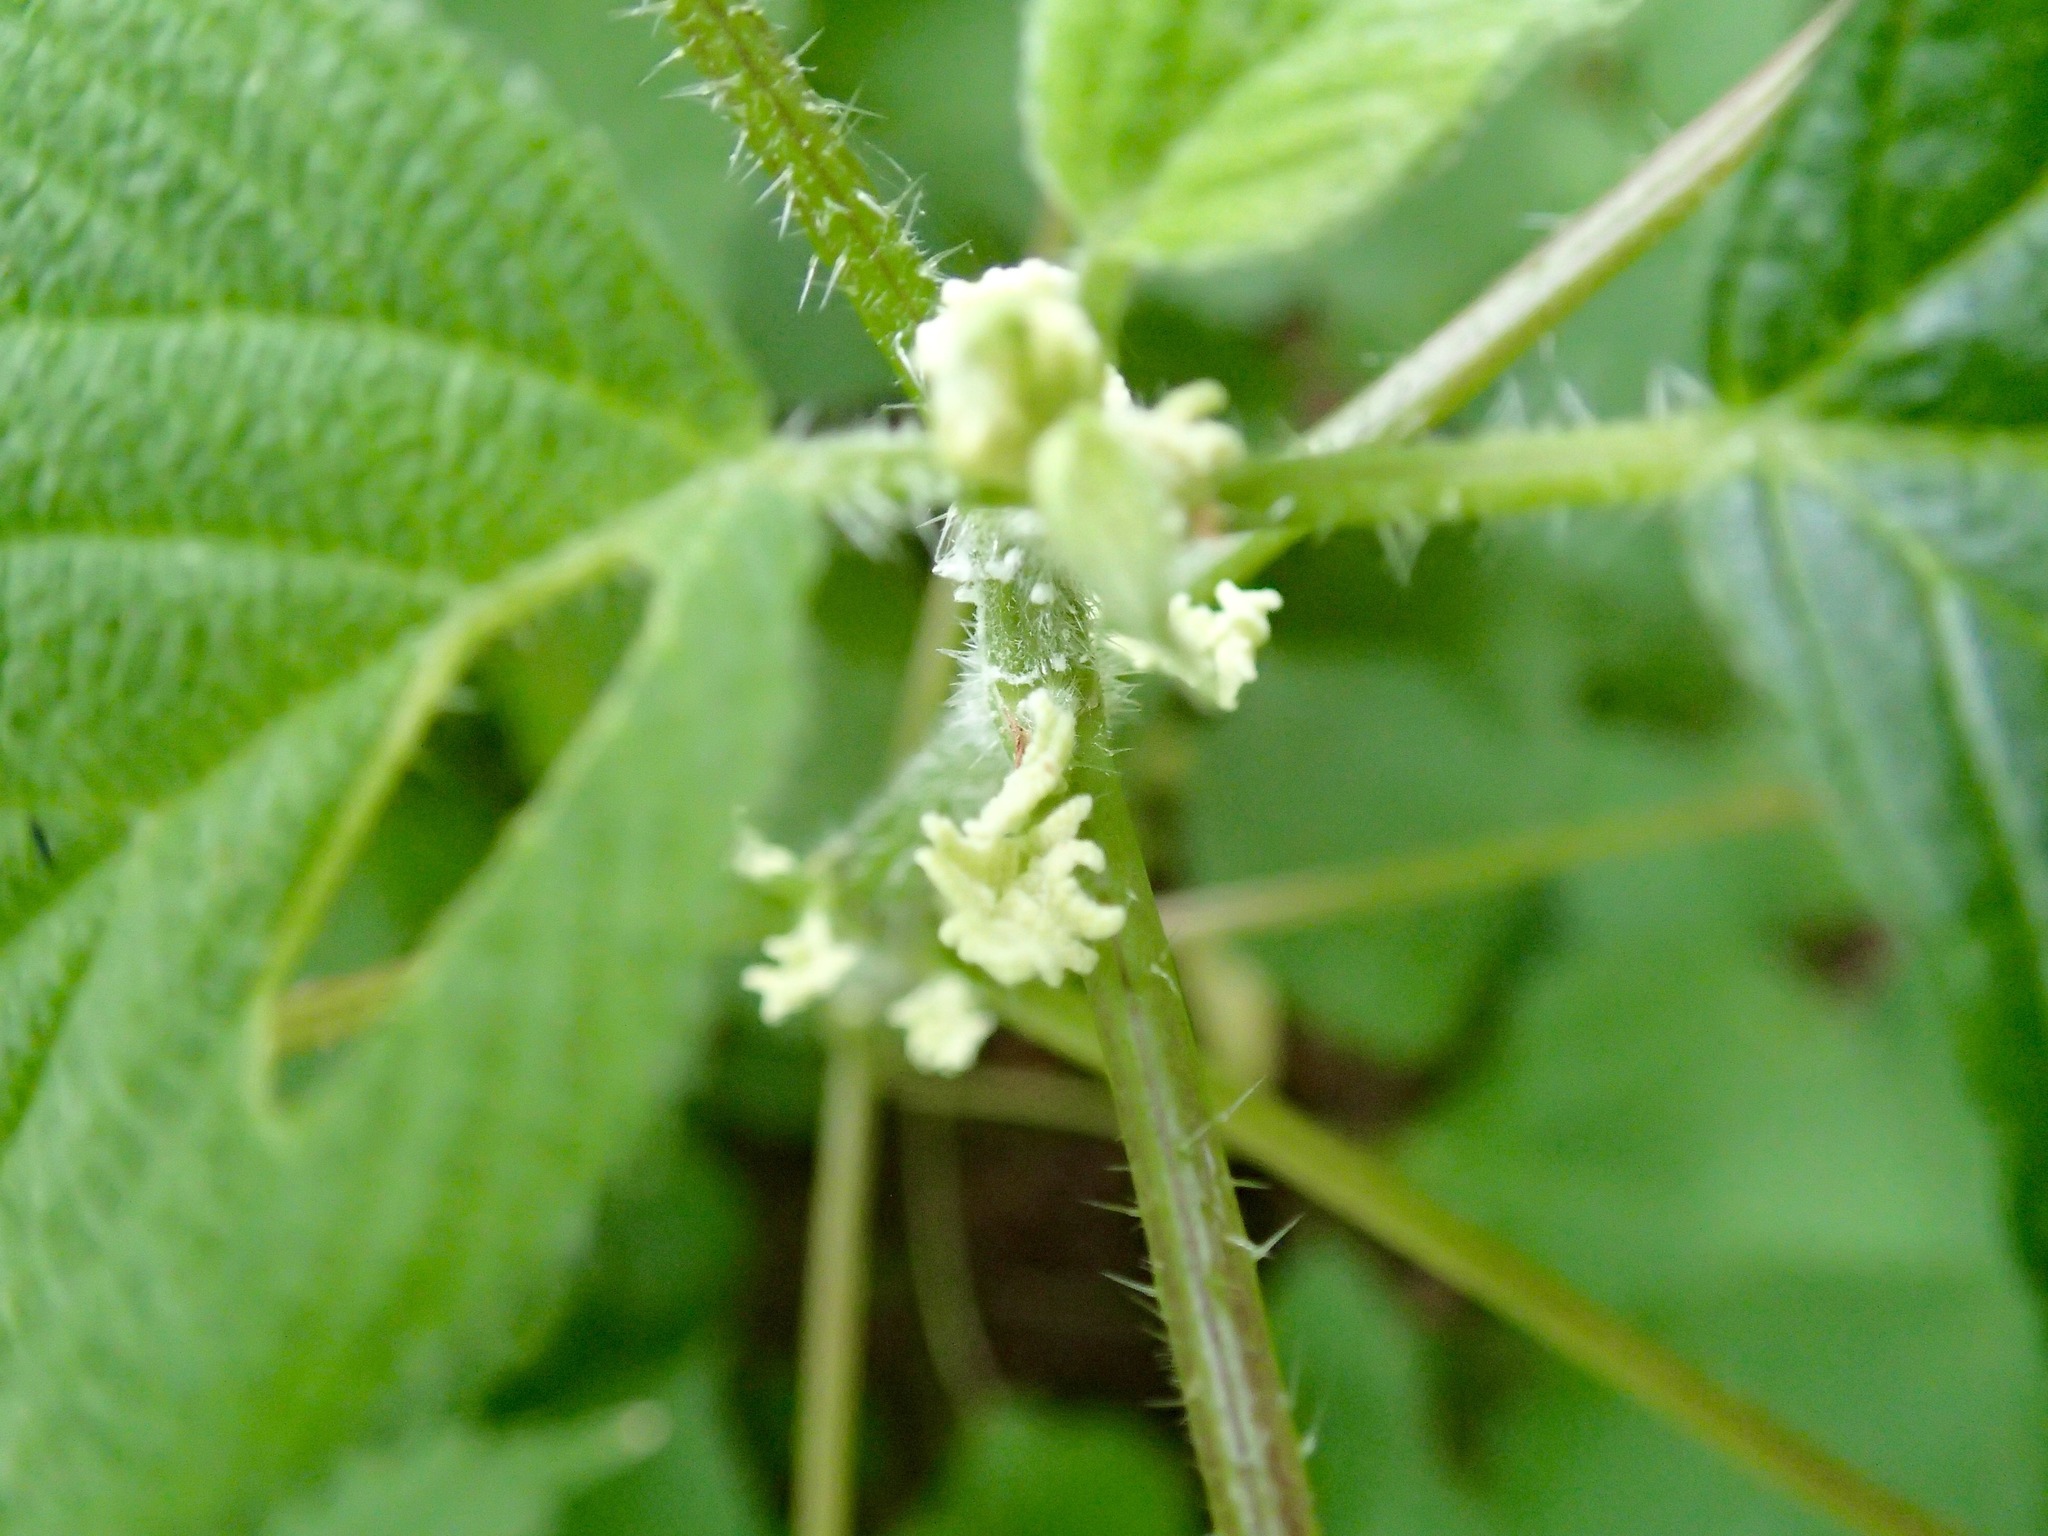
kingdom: Plantae
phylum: Tracheophyta
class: Magnoliopsida
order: Rosales
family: Urticaceae
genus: Laportea
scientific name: Laportea canadensis
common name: Canada nettle
